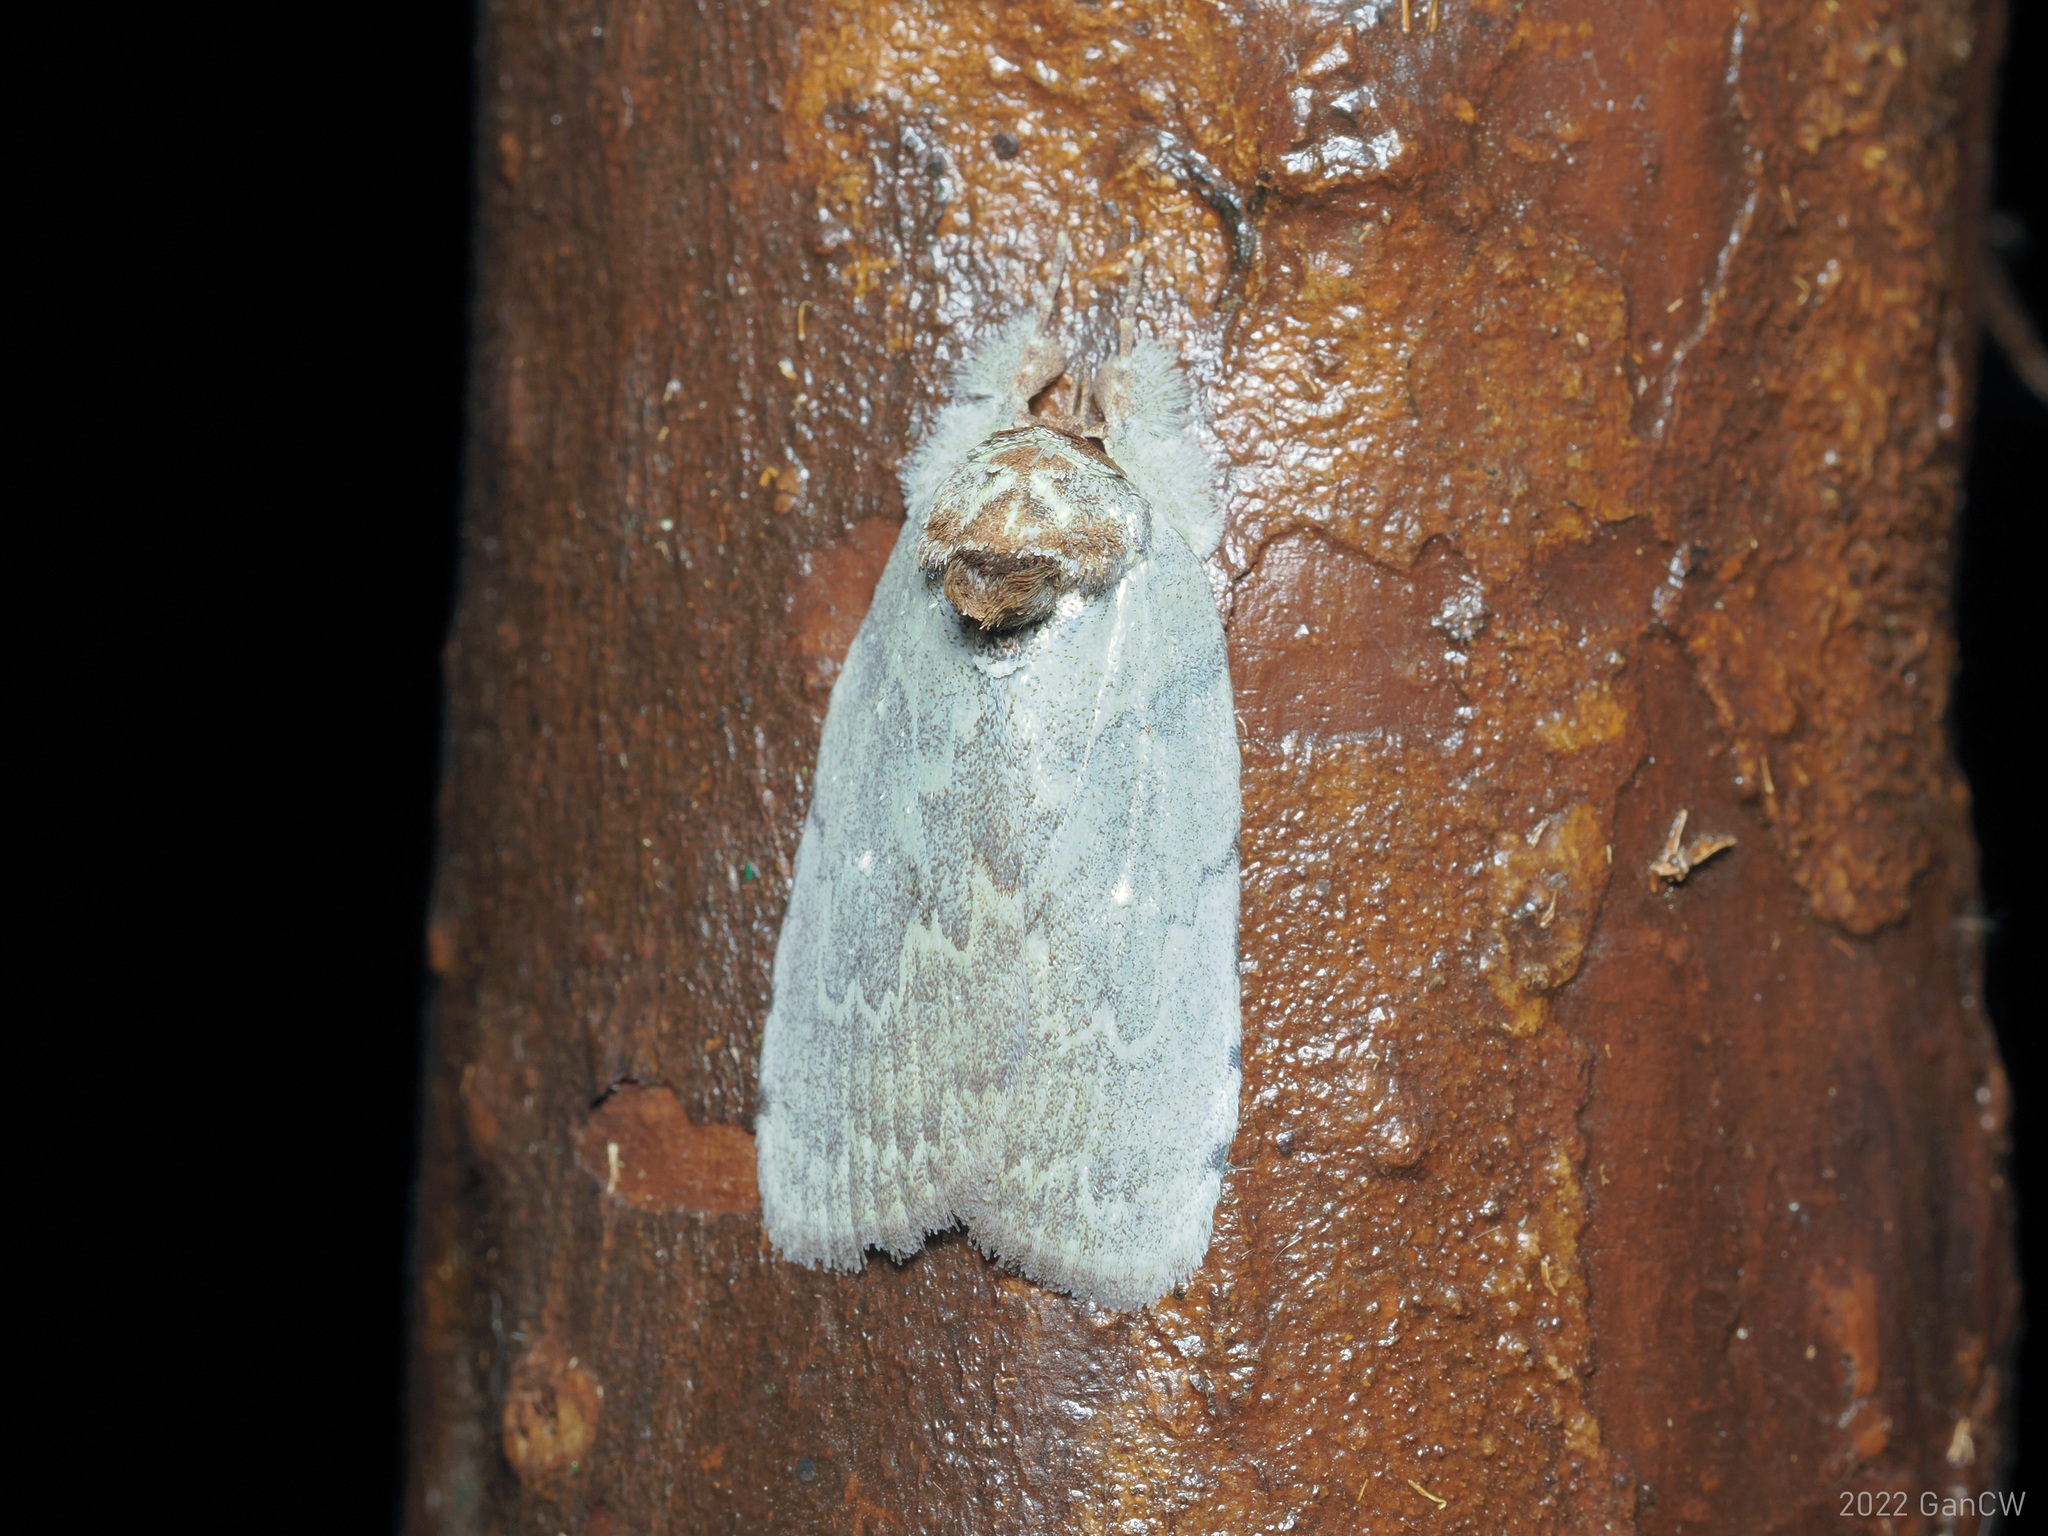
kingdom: Animalia
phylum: Arthropoda
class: Insecta
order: Lepidoptera
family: Nolidae
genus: Ptisciana
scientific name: Ptisciana seminivea
